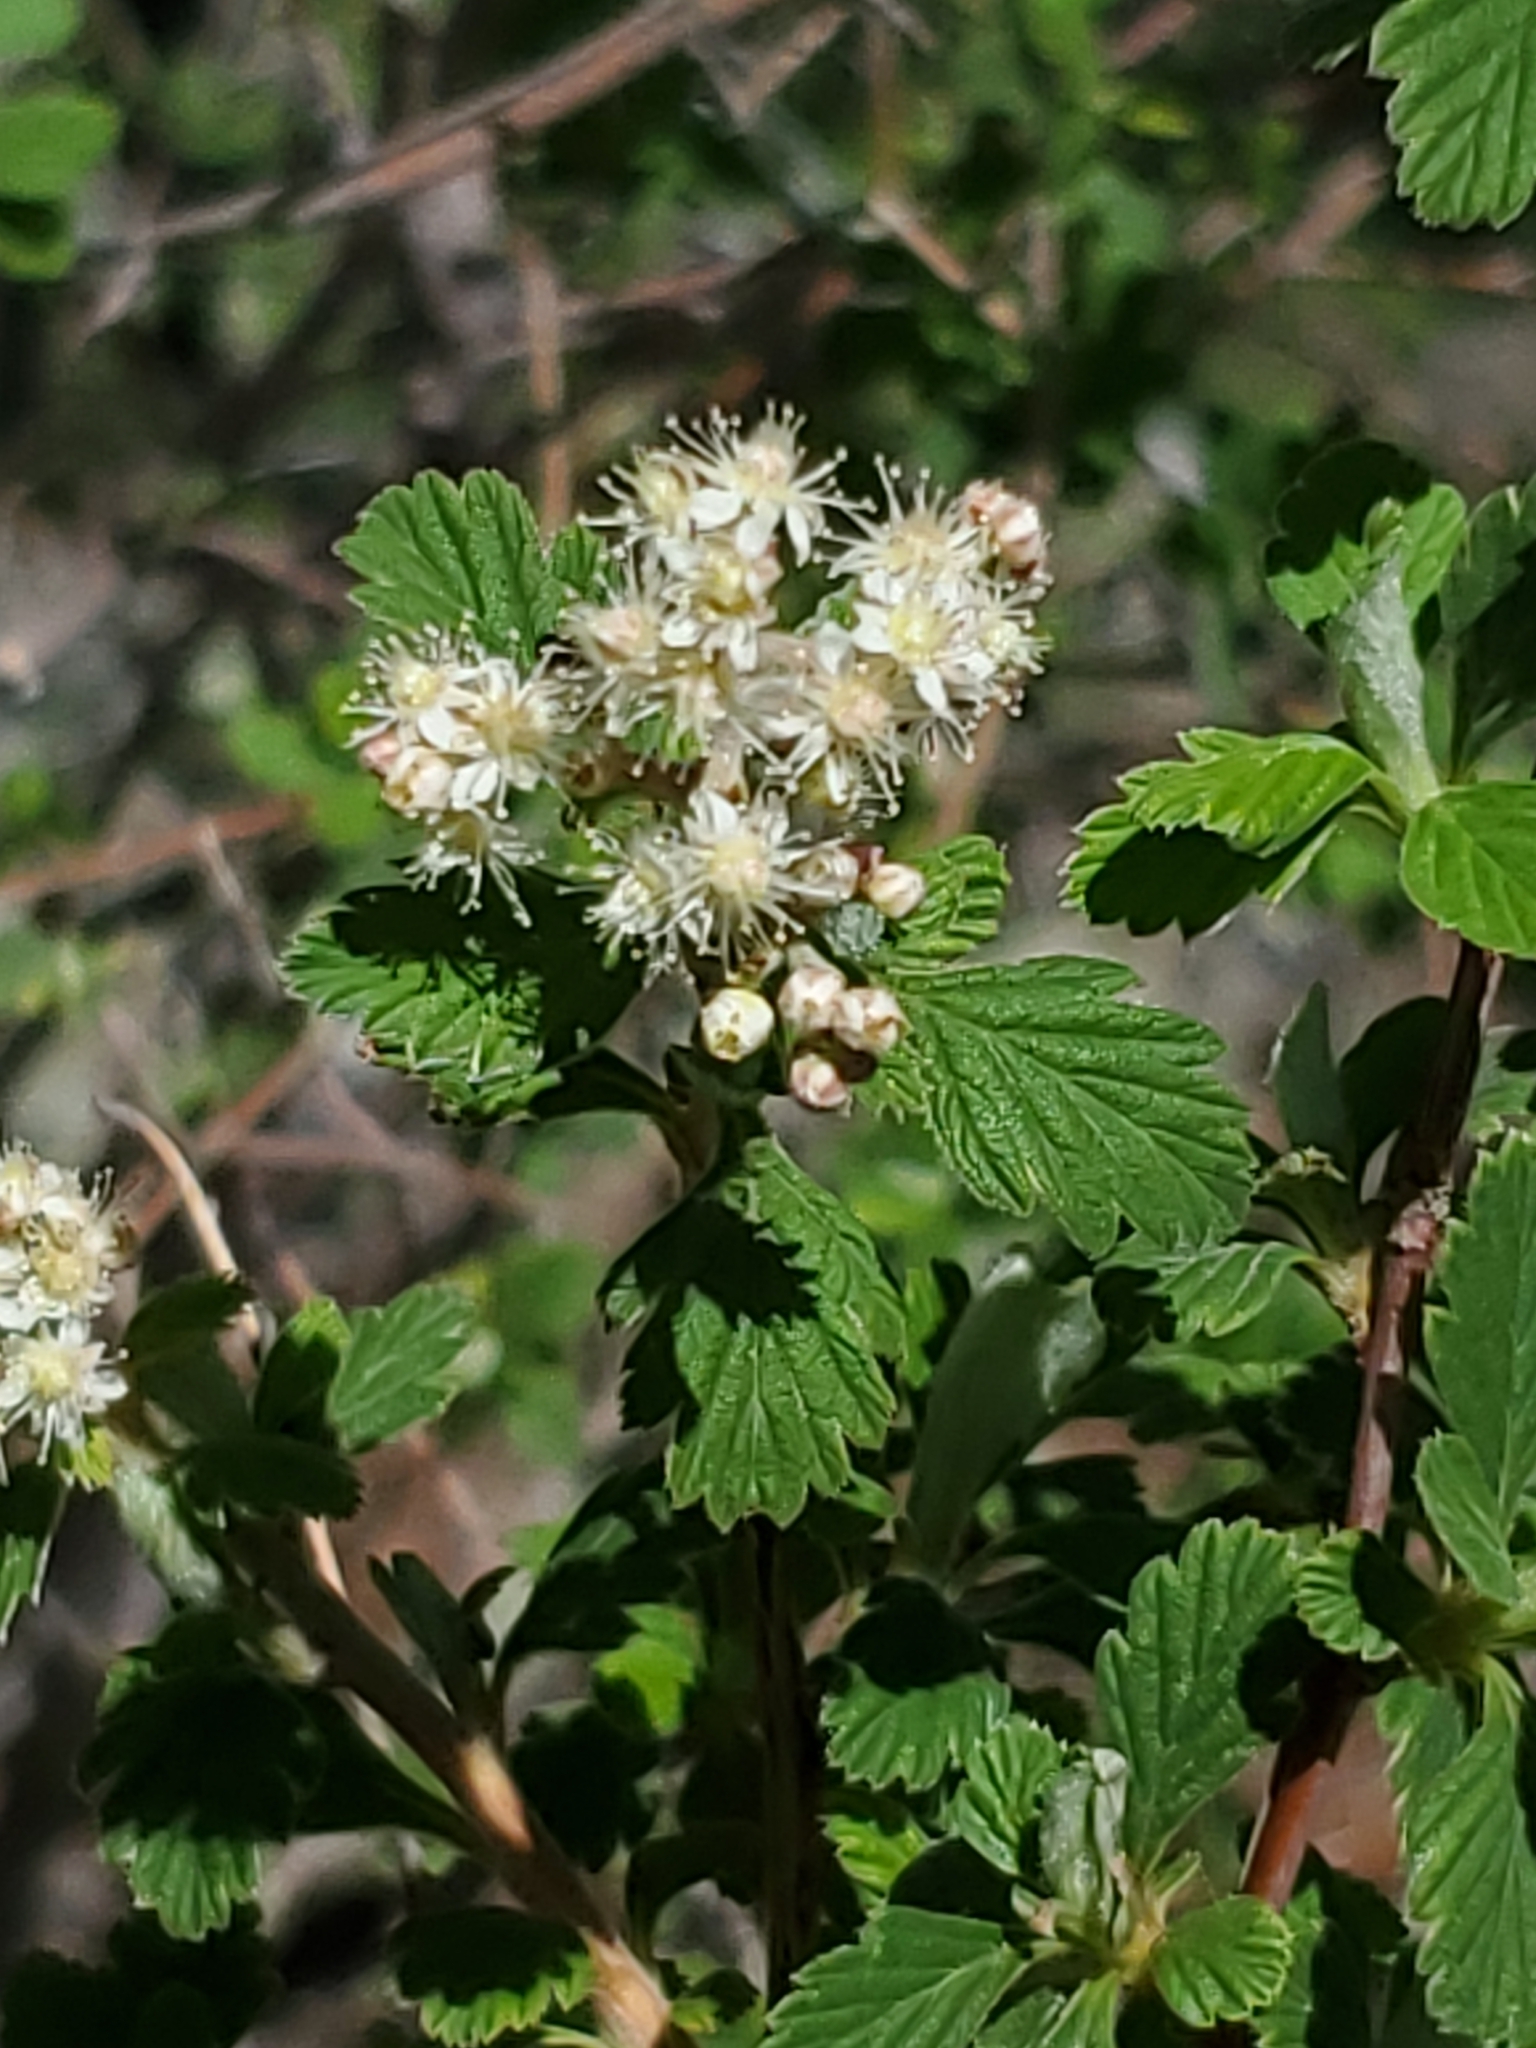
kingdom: Plantae
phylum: Tracheophyta
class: Magnoliopsida
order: Rosales
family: Rosaceae
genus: Holodiscus
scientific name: Holodiscus discolor
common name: Oceanspray
